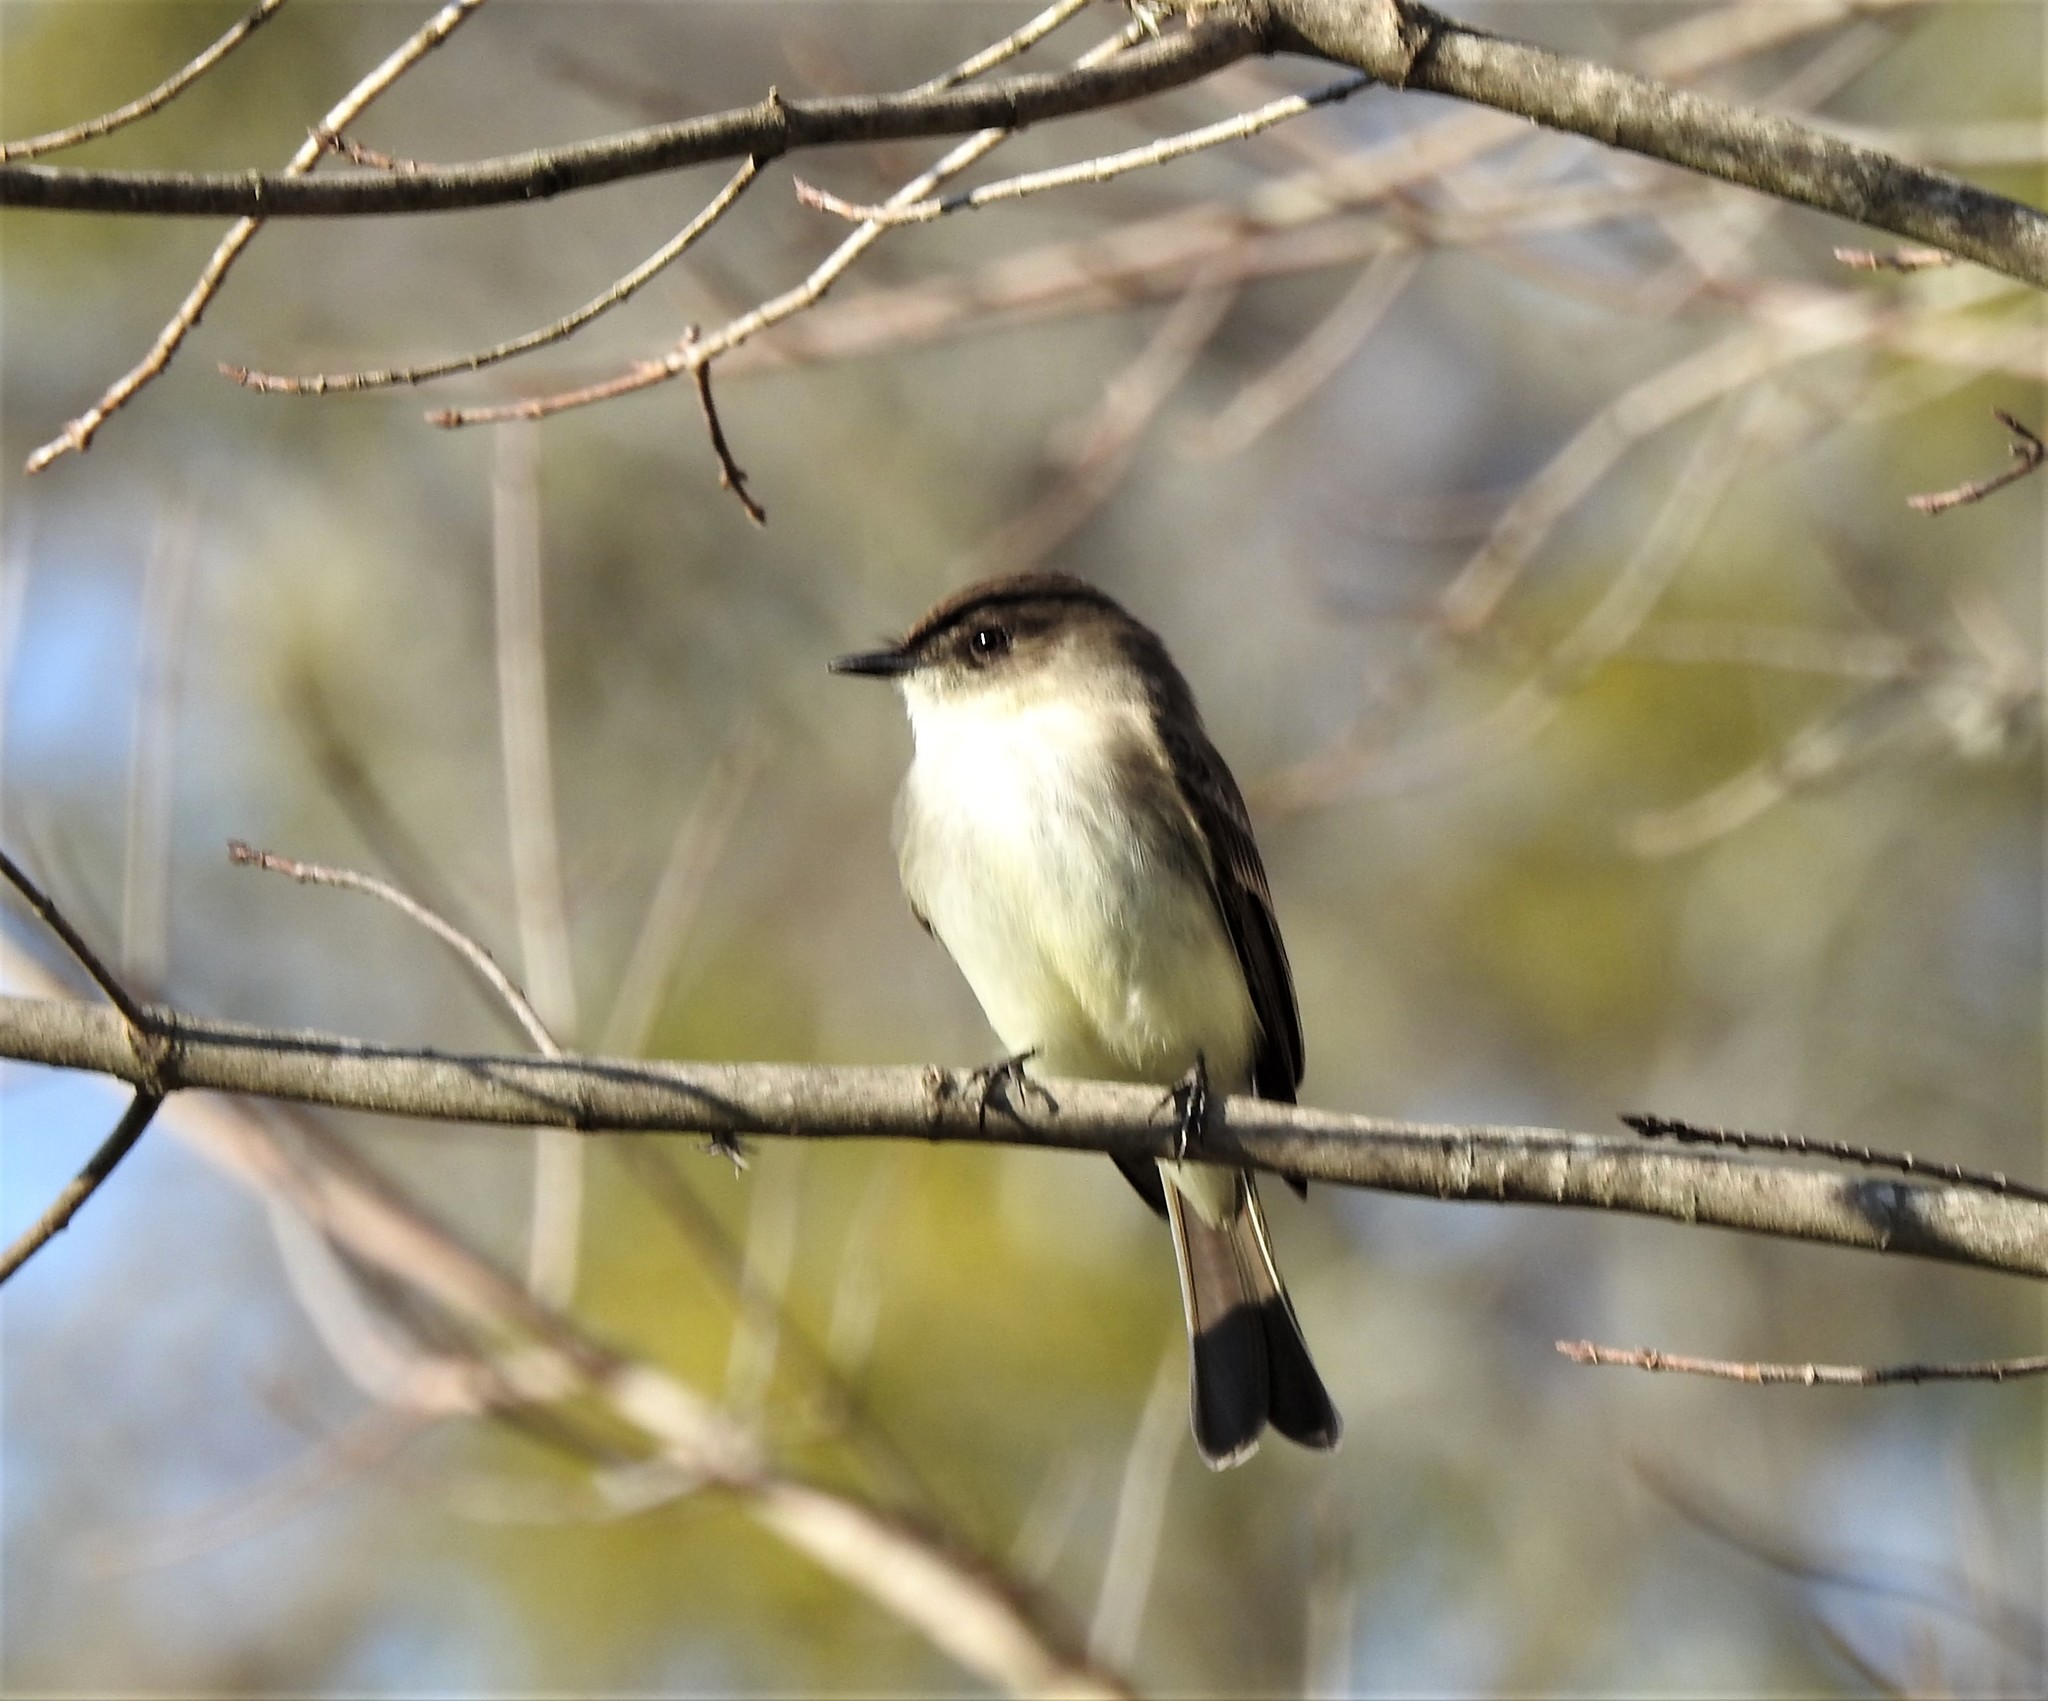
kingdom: Animalia
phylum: Chordata
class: Aves
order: Passeriformes
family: Tyrannidae
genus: Sayornis
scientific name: Sayornis phoebe
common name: Eastern phoebe
